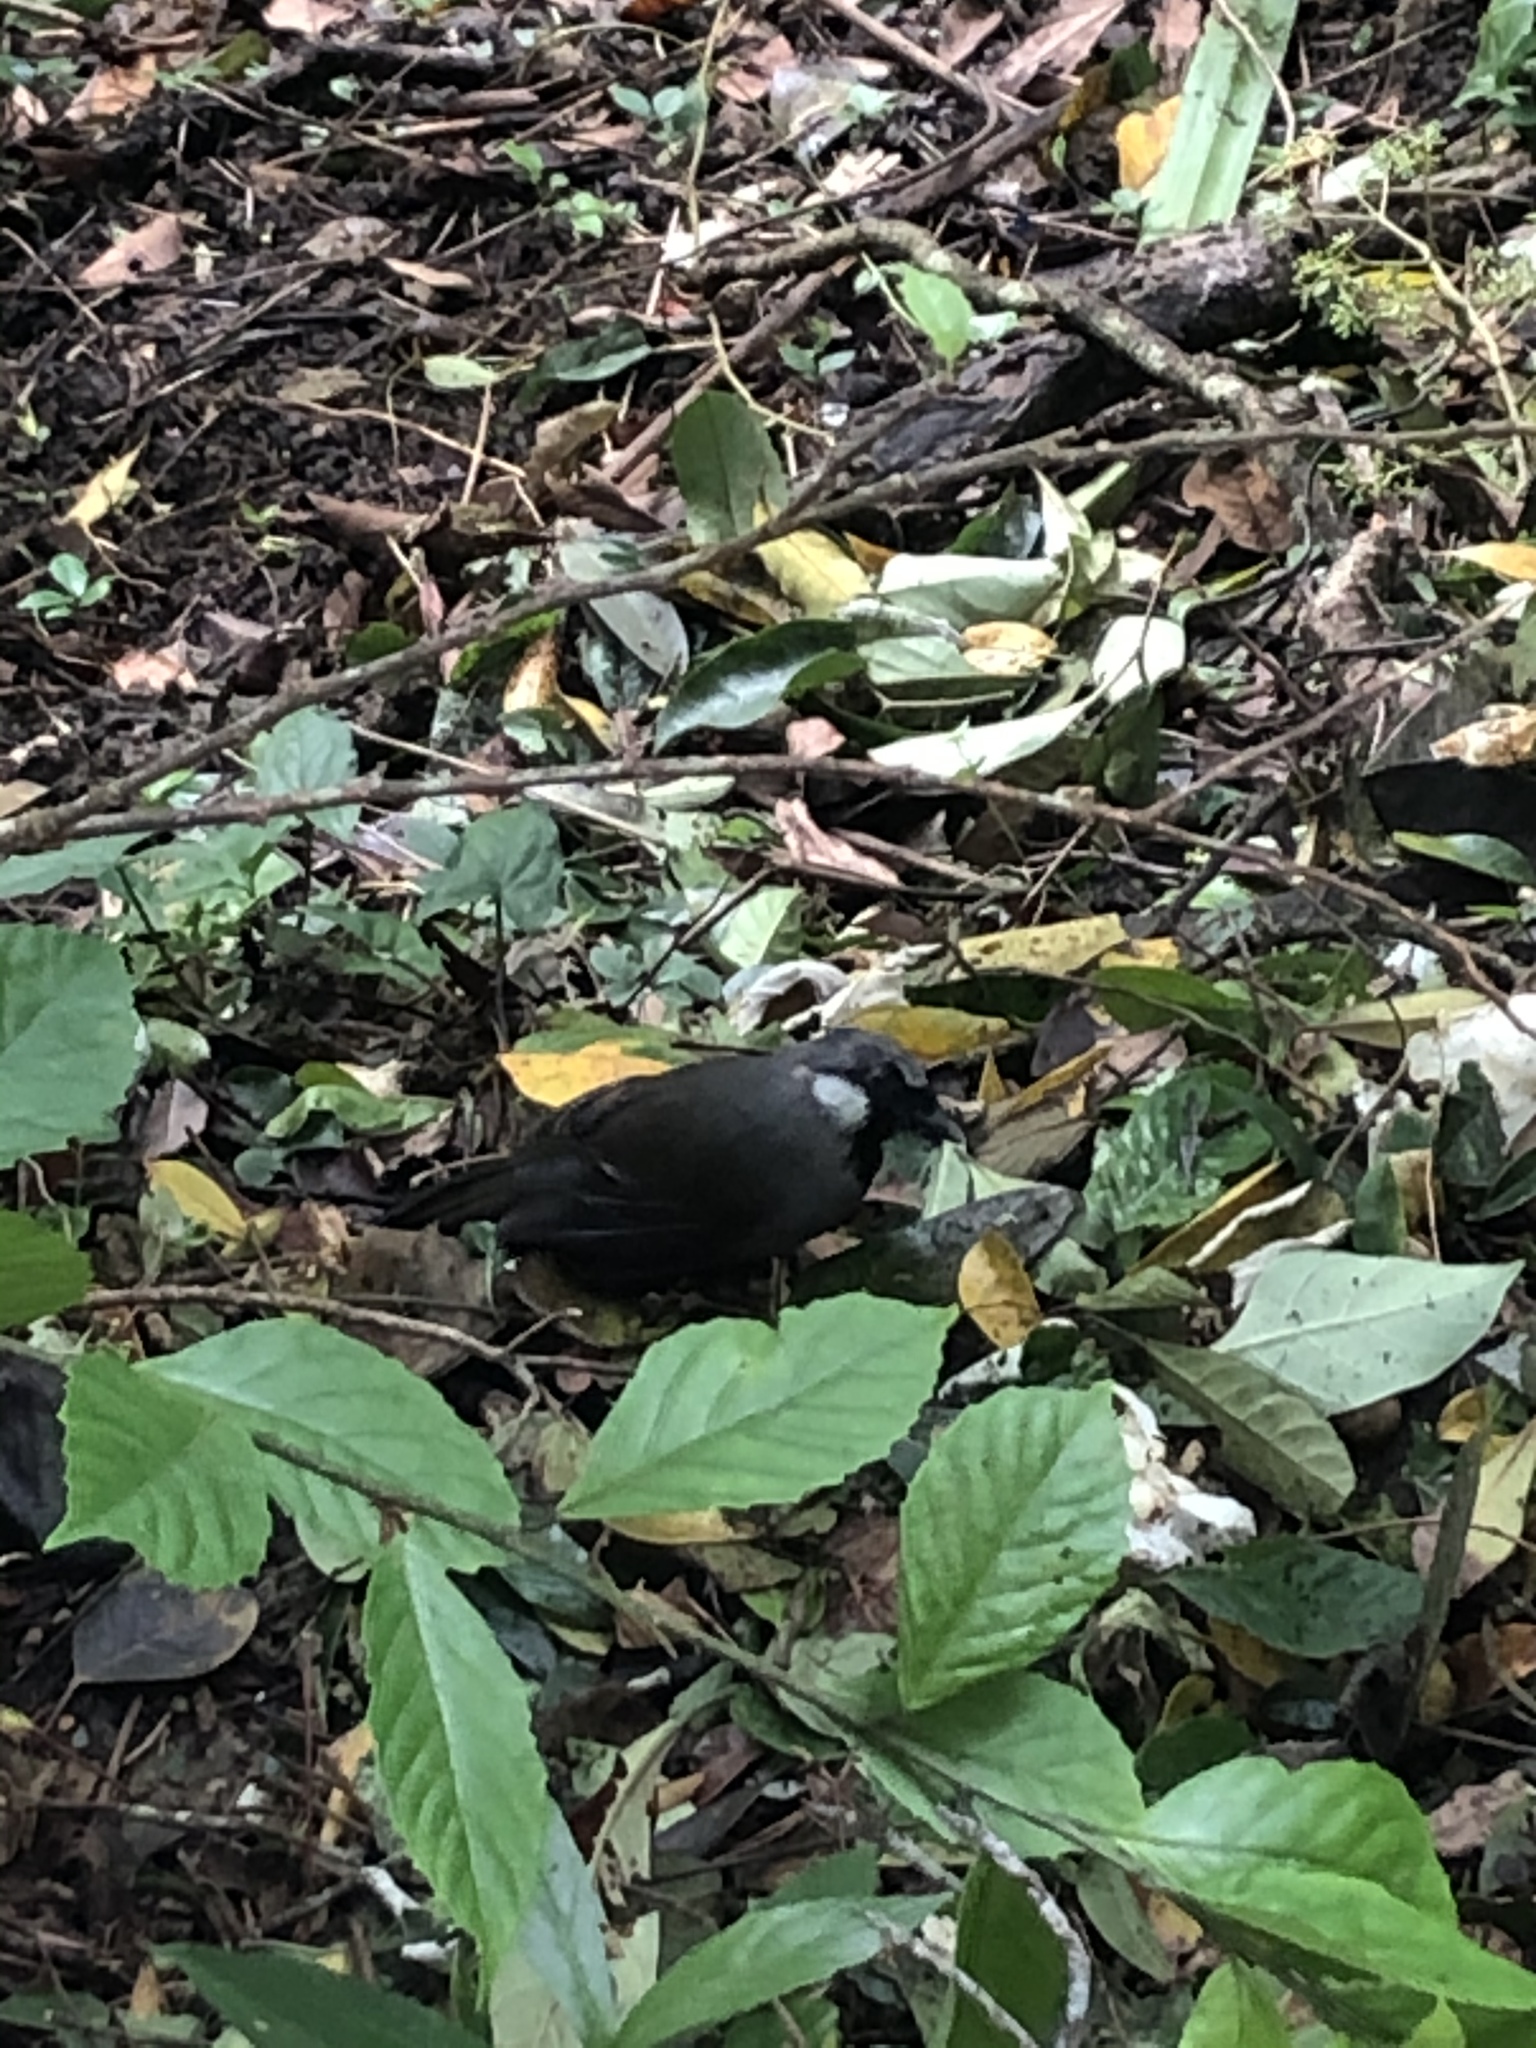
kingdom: Animalia
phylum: Chordata
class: Aves
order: Passeriformes
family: Leiothrichidae
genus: Garrulax
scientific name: Garrulax chinensis
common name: Black-throated laughingthrush
